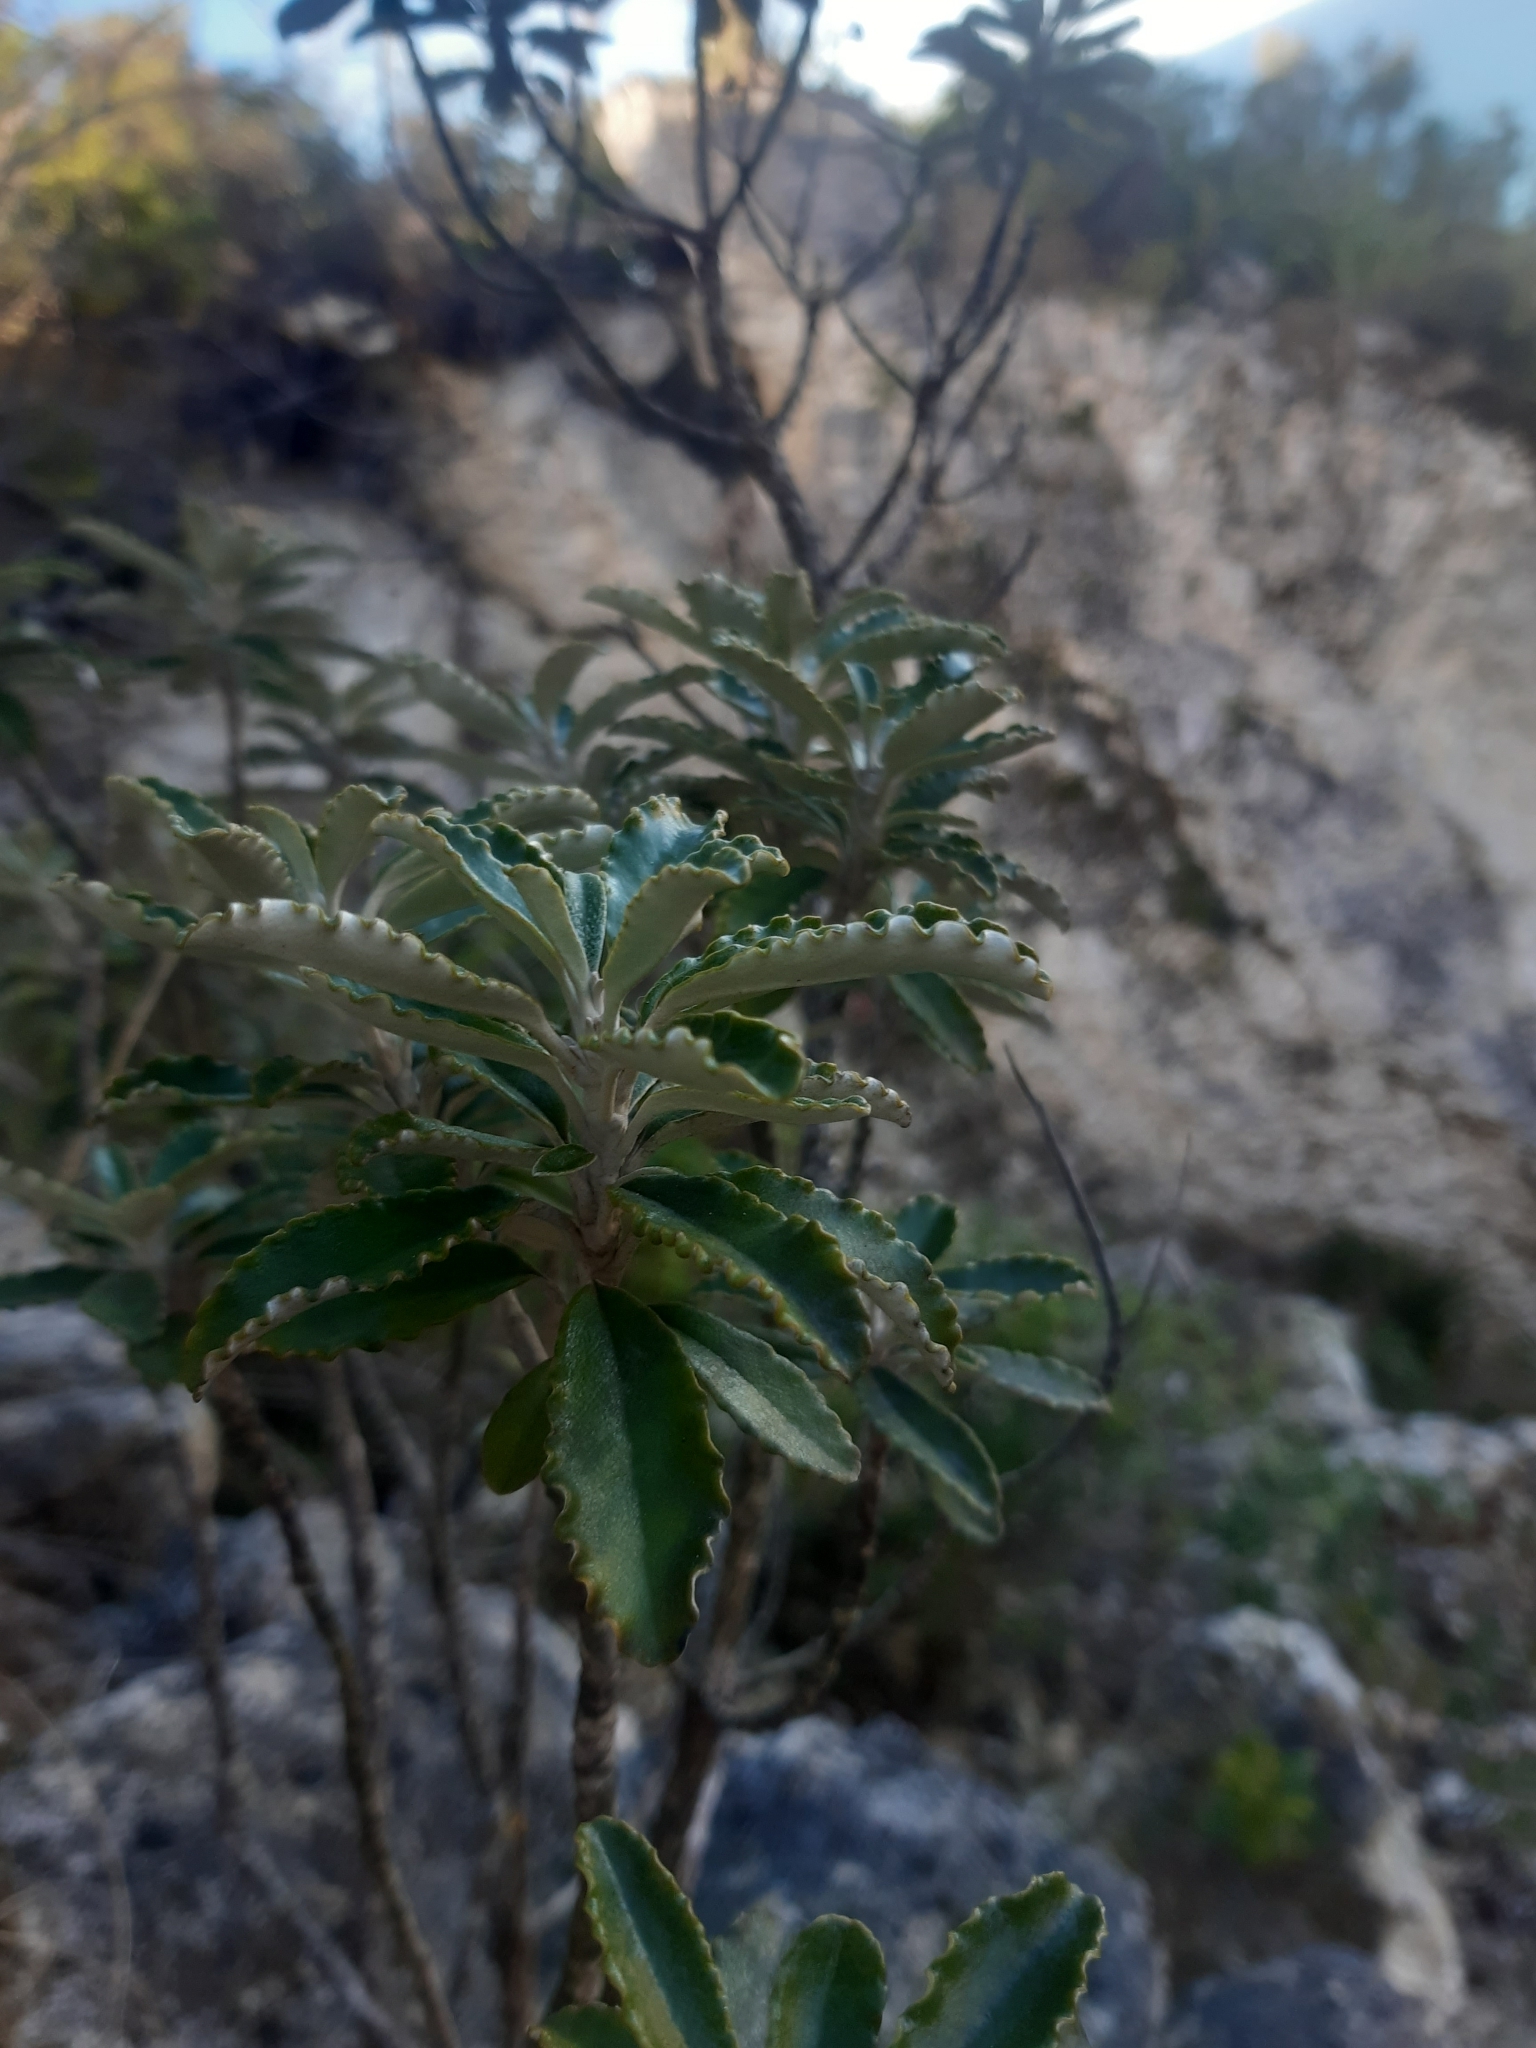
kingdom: Plantae
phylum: Tracheophyta
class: Magnoliopsida
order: Asterales
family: Asteraceae
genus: Brachyglottis
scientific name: Brachyglottis monroi
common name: Monro's ragwort
